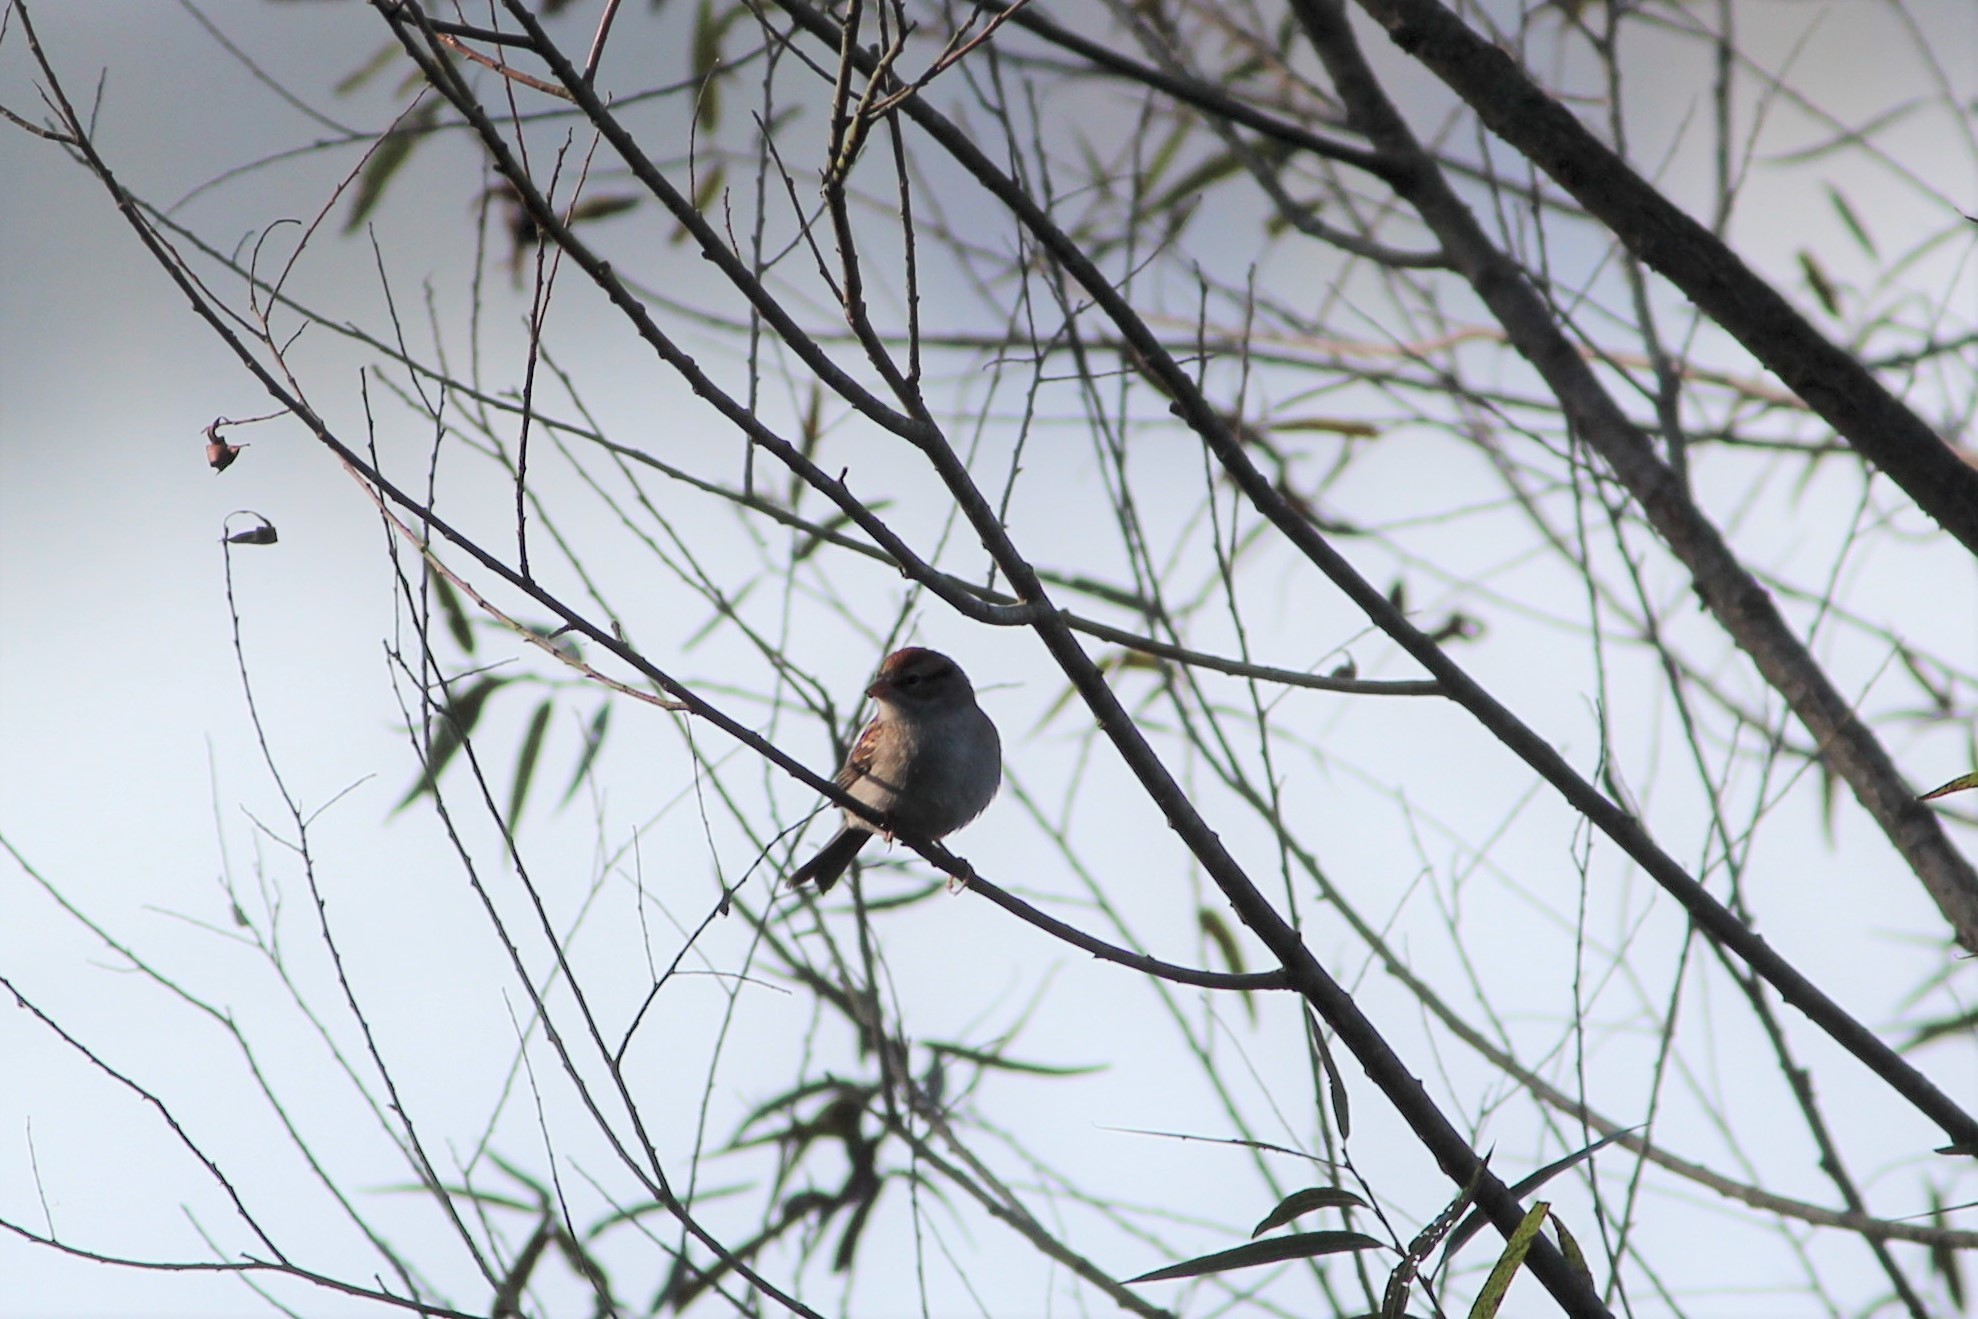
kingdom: Animalia
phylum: Chordata
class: Aves
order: Passeriformes
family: Passerellidae
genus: Spizella
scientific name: Spizella passerina
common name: Chipping sparrow
